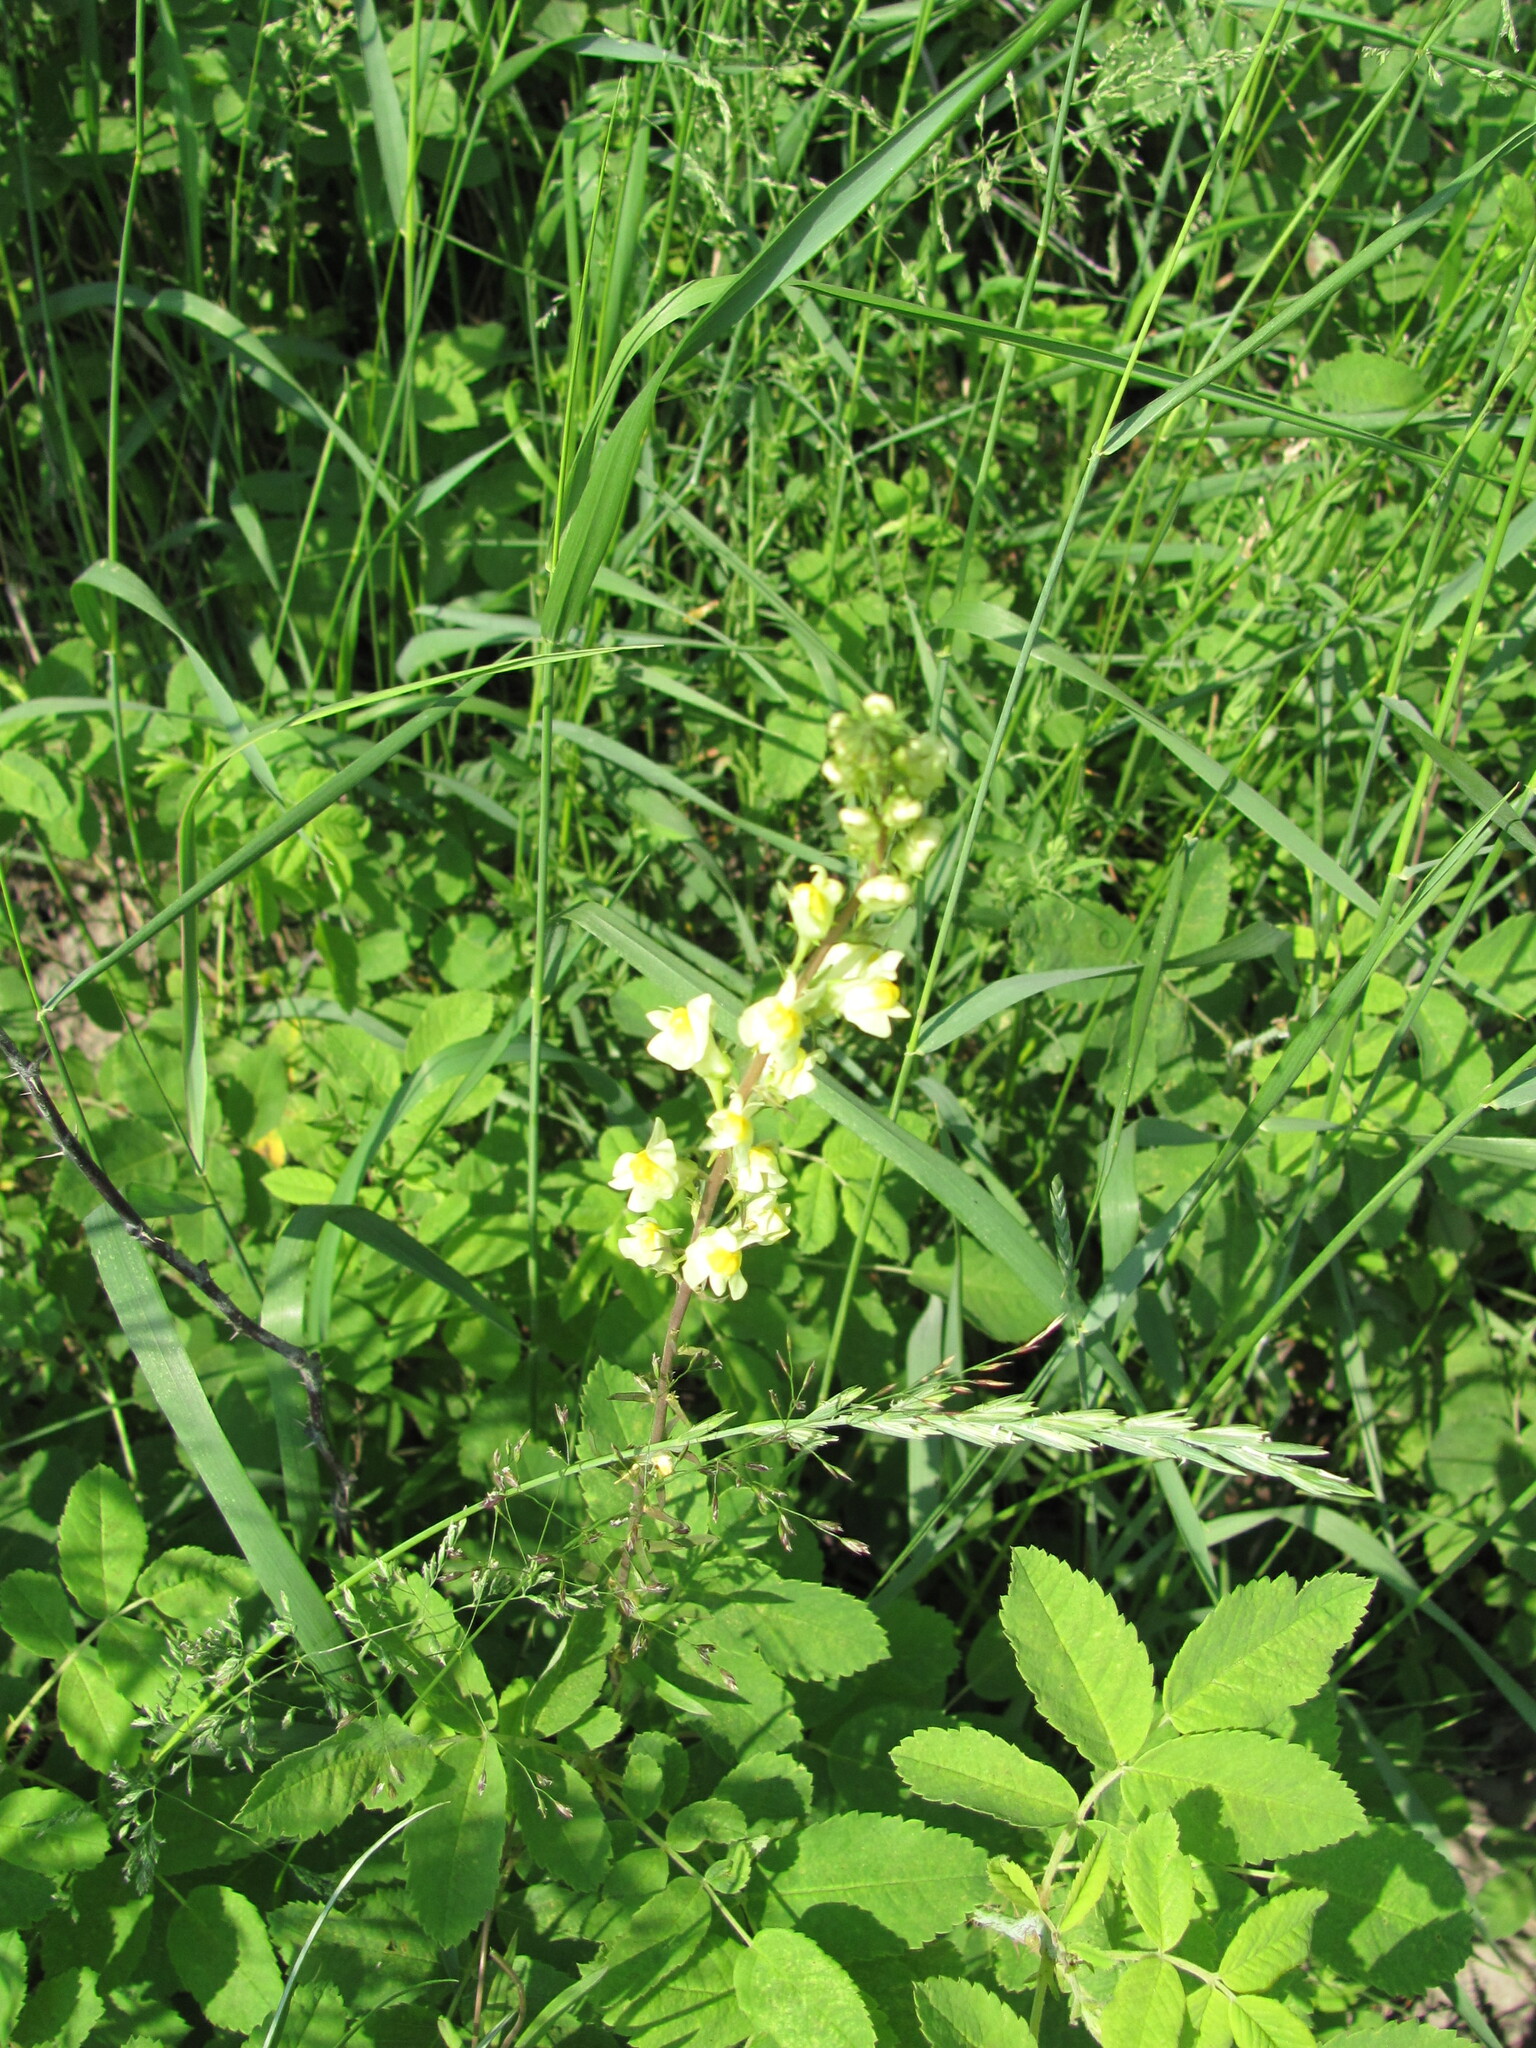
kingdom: Plantae
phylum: Tracheophyta
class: Magnoliopsida
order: Lamiales
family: Plantaginaceae
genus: Linaria
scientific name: Linaria vulgaris
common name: Butter and eggs
